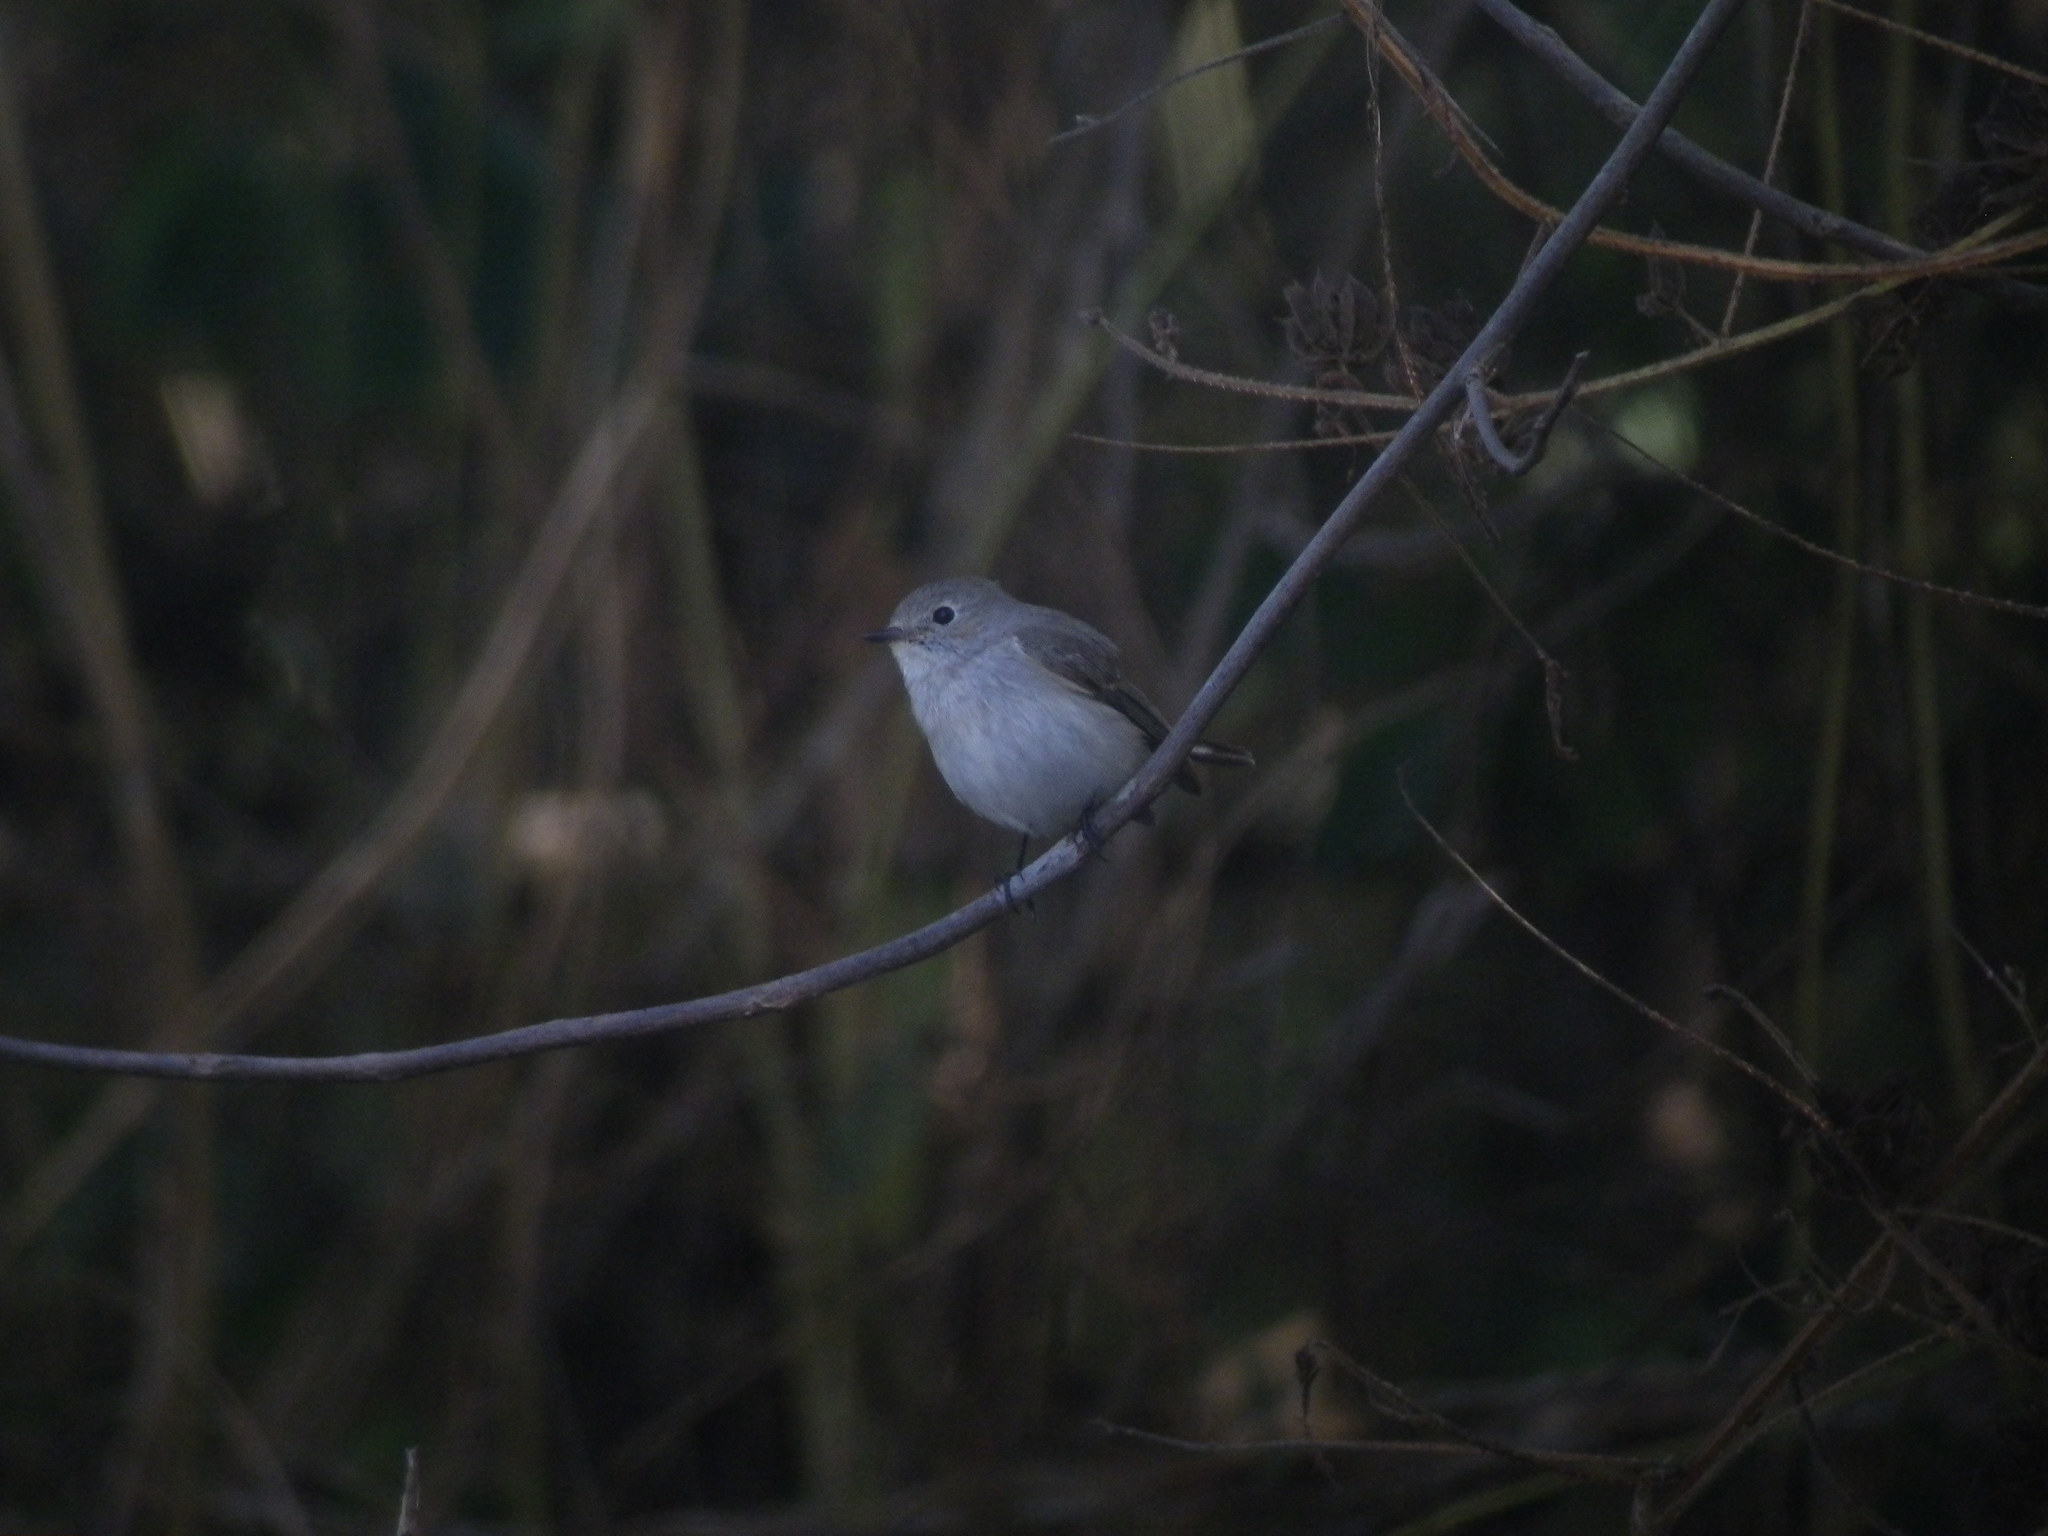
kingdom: Animalia
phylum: Chordata
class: Aves
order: Passeriformes
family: Muscicapidae
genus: Ficedula
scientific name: Ficedula albicilla
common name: Taiga flycatcher
